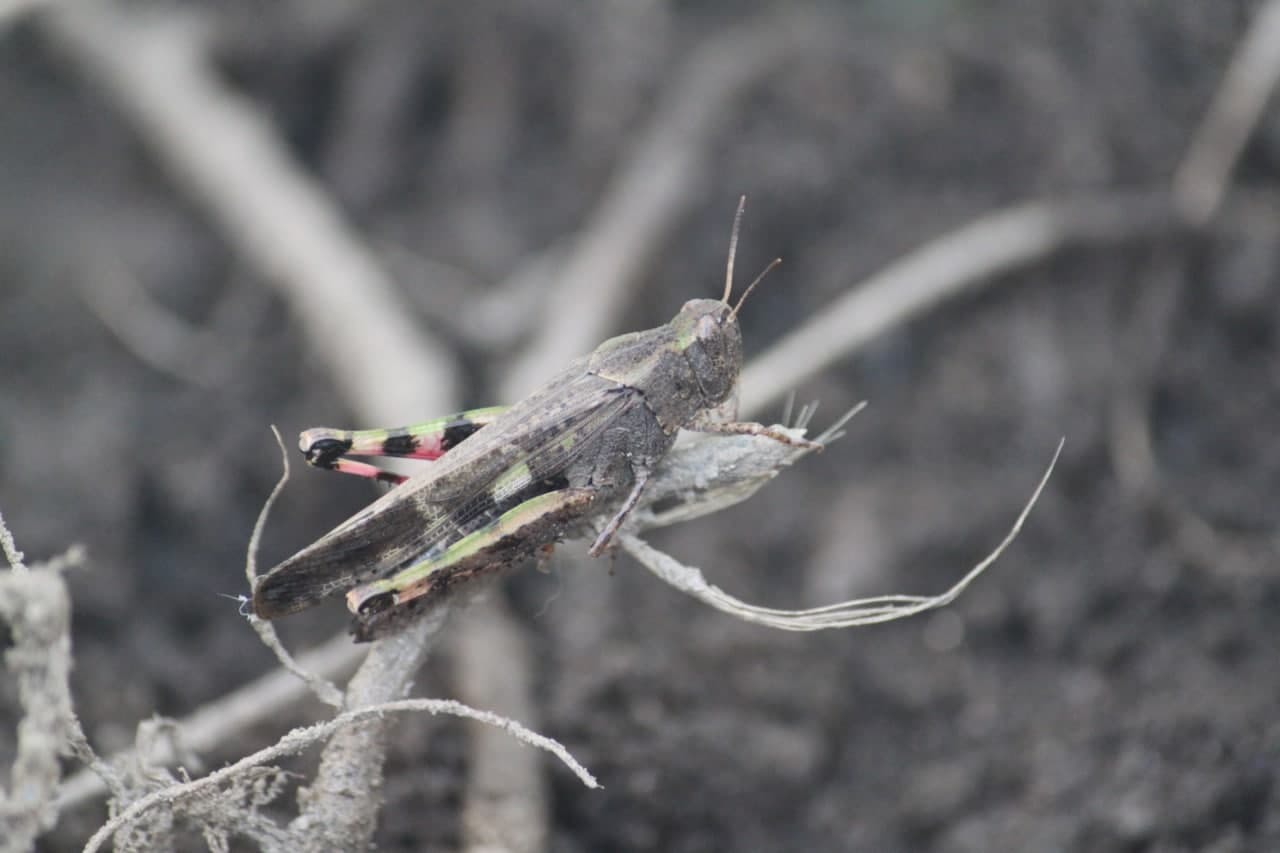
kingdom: Animalia
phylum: Arthropoda
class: Insecta
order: Orthoptera
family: Acrididae
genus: Aiolopus
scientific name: Aiolopus strepens
